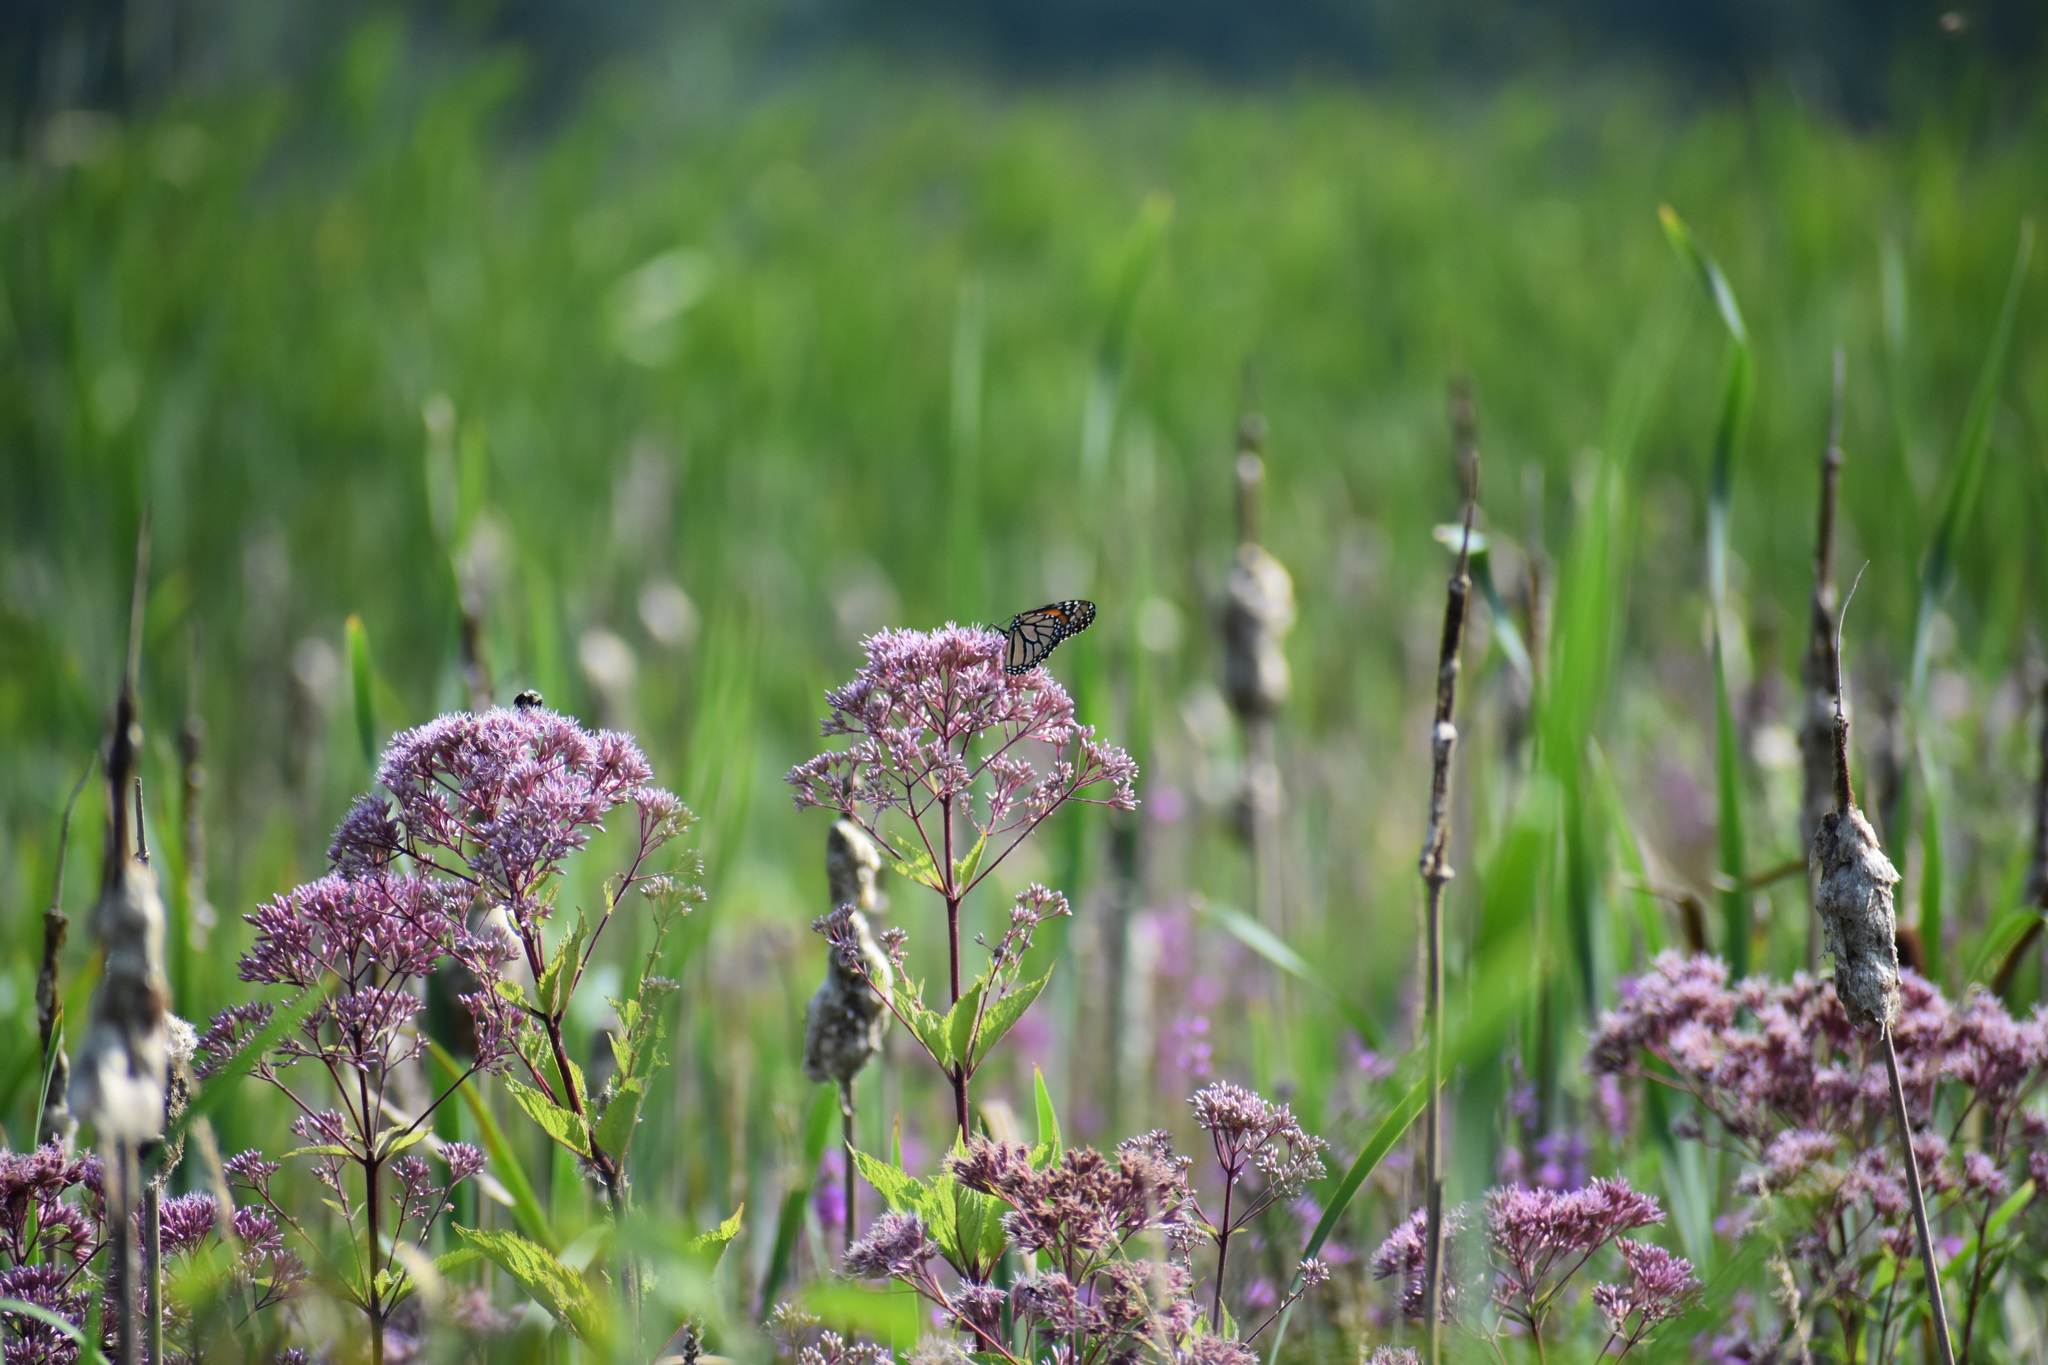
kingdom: Animalia
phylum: Arthropoda
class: Insecta
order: Lepidoptera
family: Nymphalidae
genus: Danaus
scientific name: Danaus plexippus
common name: Monarch
